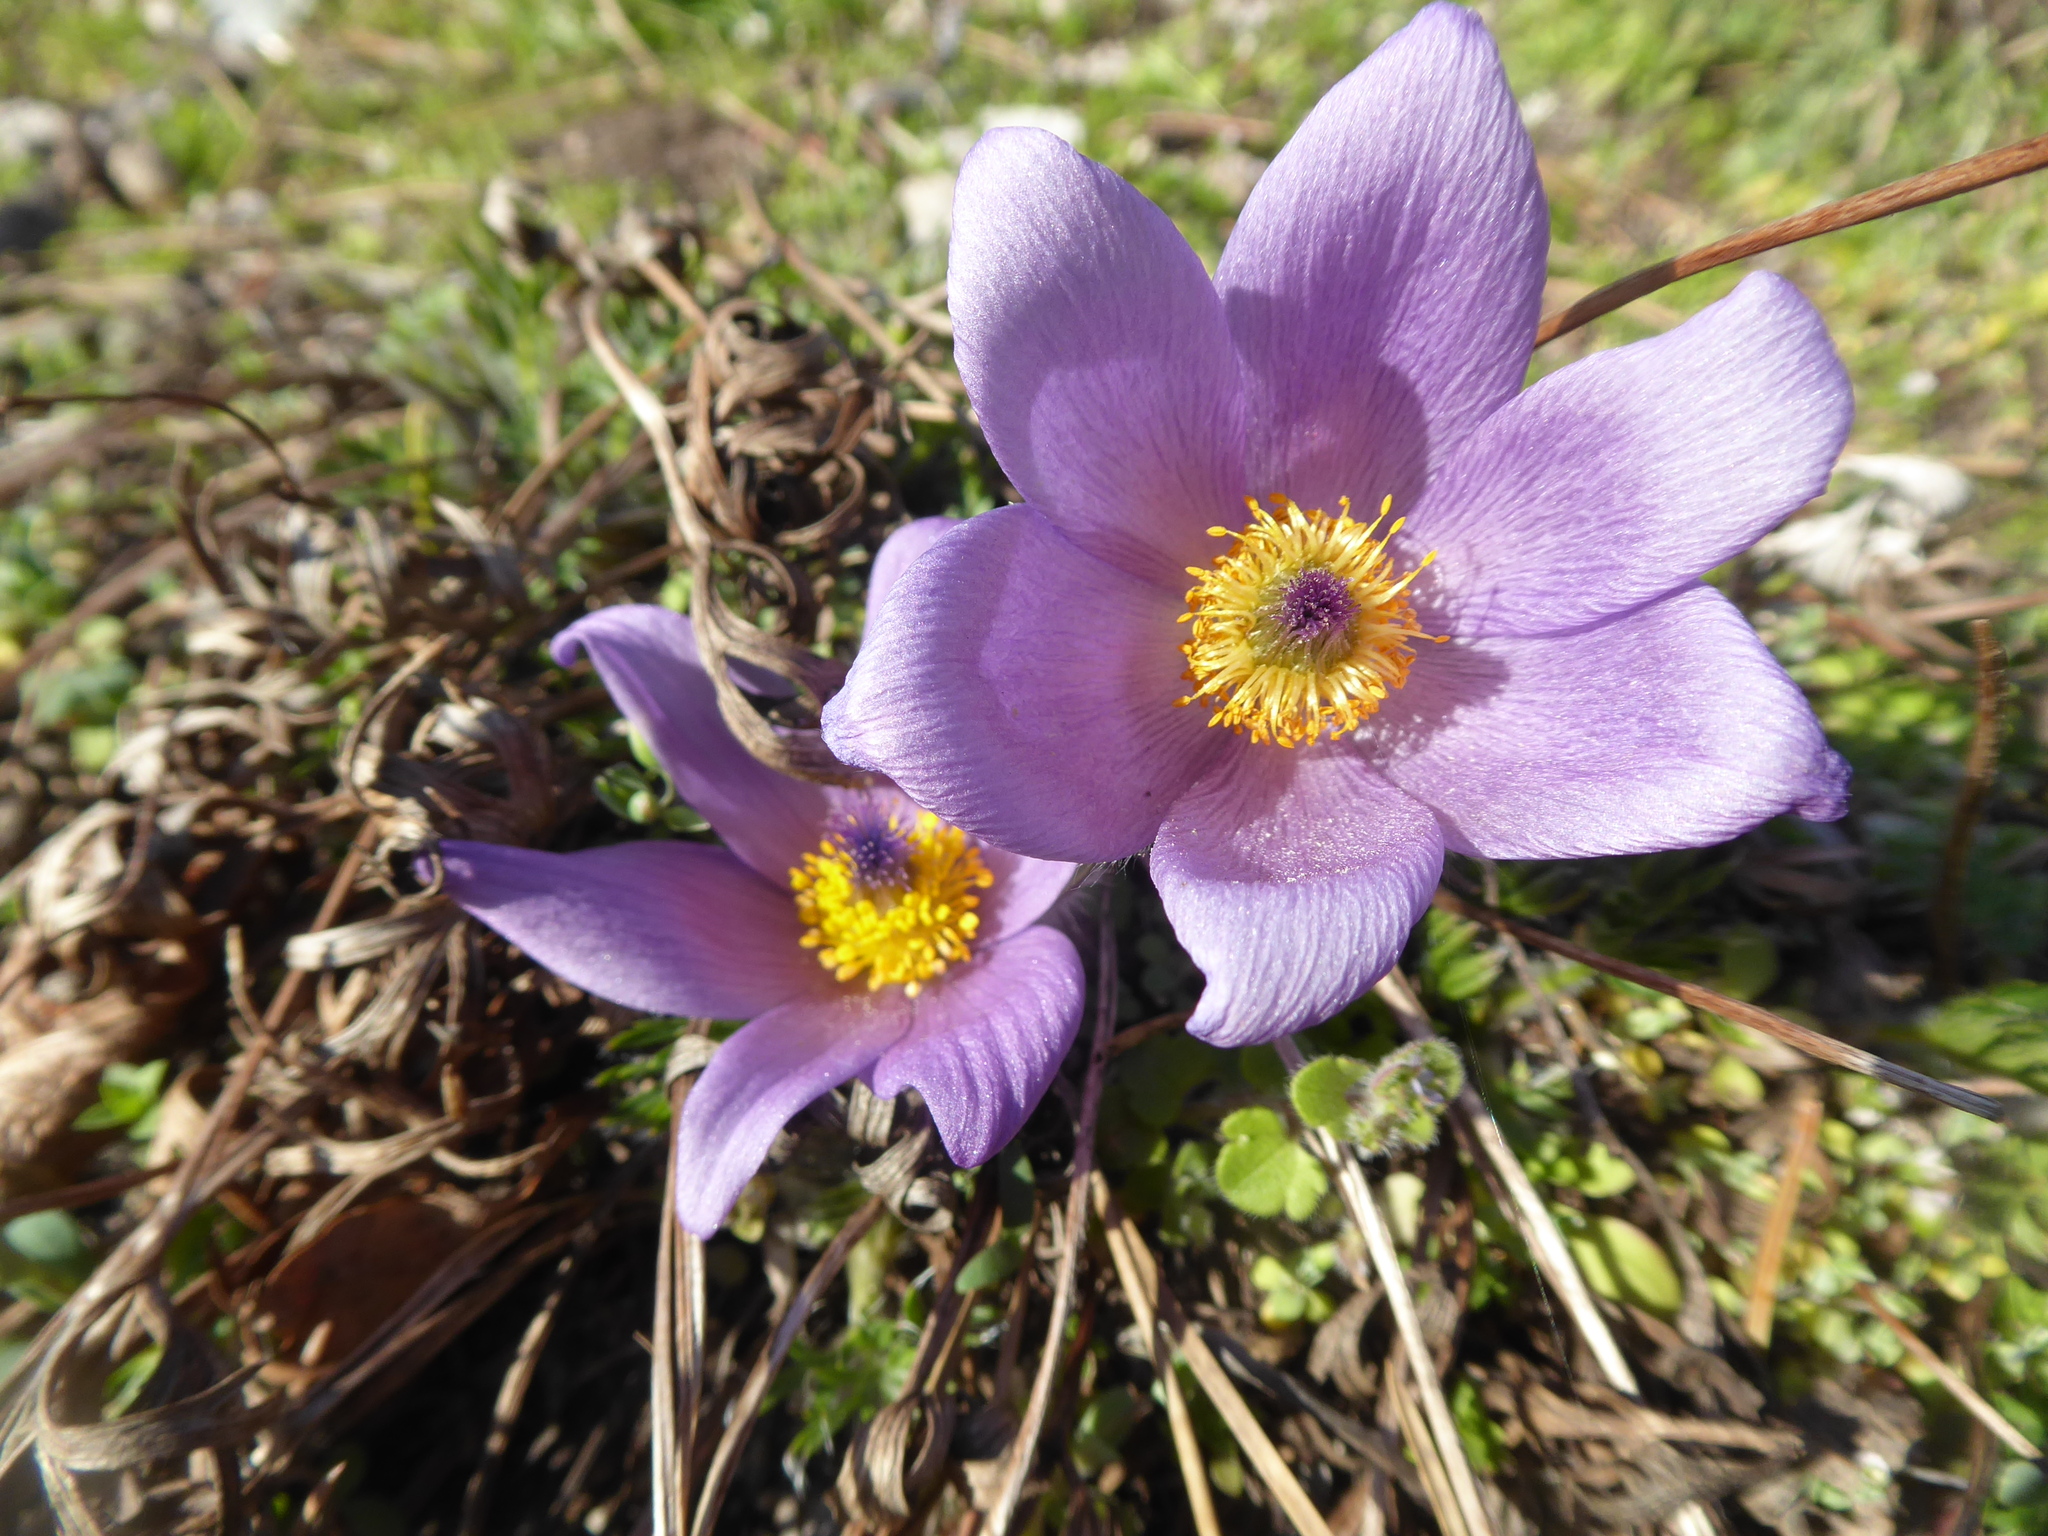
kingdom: Plantae
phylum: Tracheophyta
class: Magnoliopsida
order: Ranunculales
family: Ranunculaceae
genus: Pulsatilla
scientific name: Pulsatilla grandis
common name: Greater pasque flower
